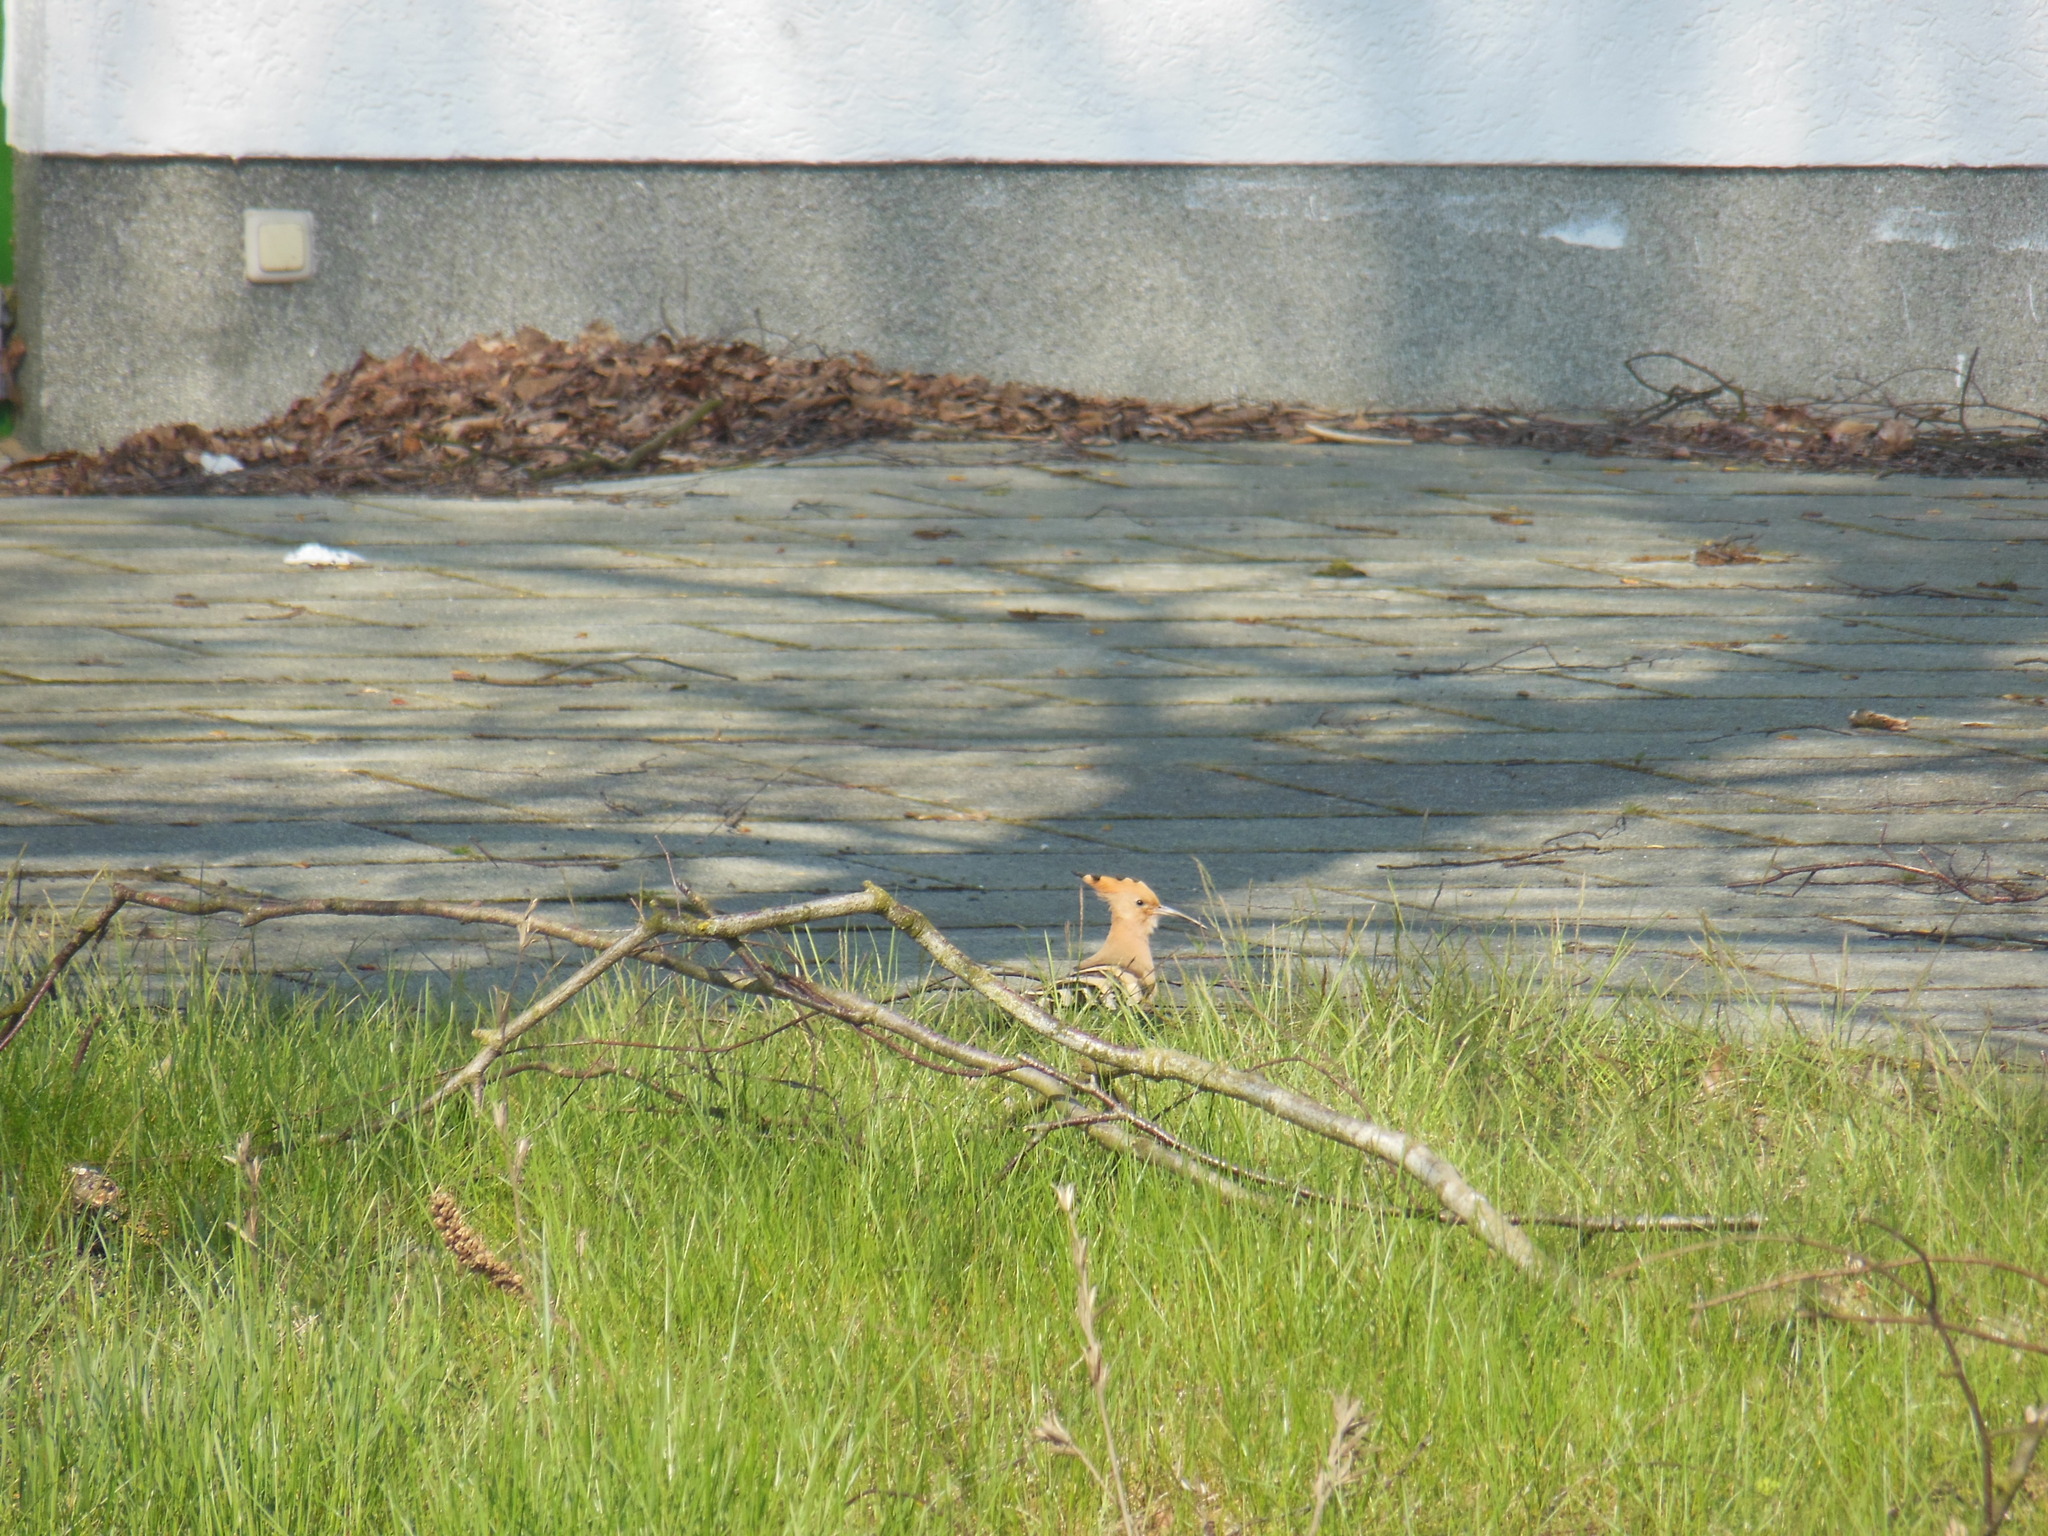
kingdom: Animalia
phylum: Chordata
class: Aves
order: Bucerotiformes
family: Upupidae
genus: Upupa
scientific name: Upupa epops
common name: Eurasian hoopoe
